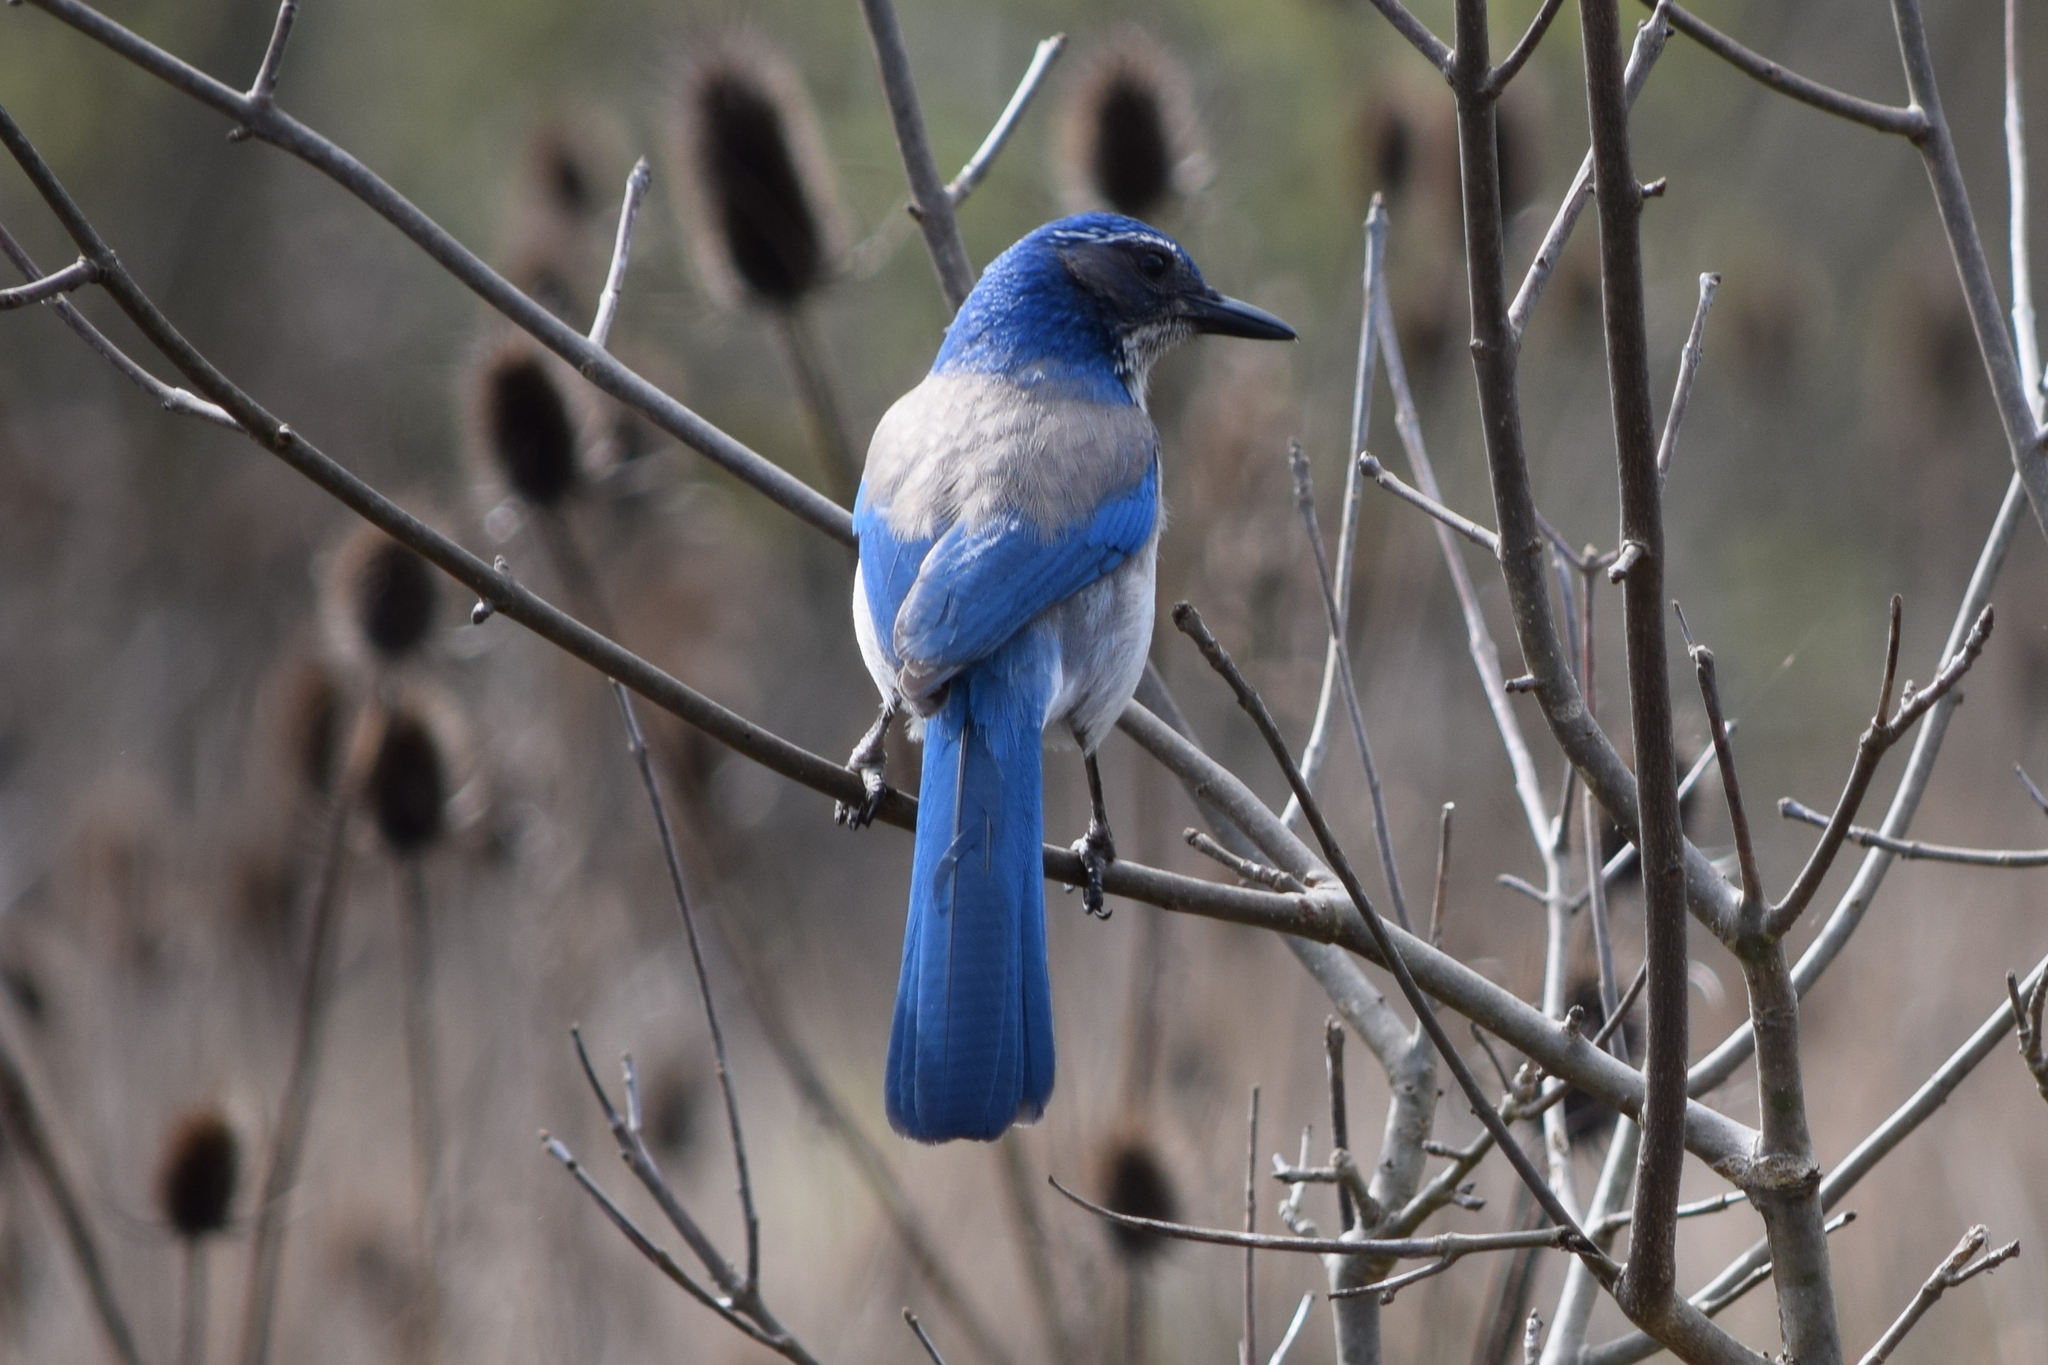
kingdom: Animalia
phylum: Chordata
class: Aves
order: Passeriformes
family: Corvidae
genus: Aphelocoma
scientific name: Aphelocoma californica
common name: California scrub-jay
